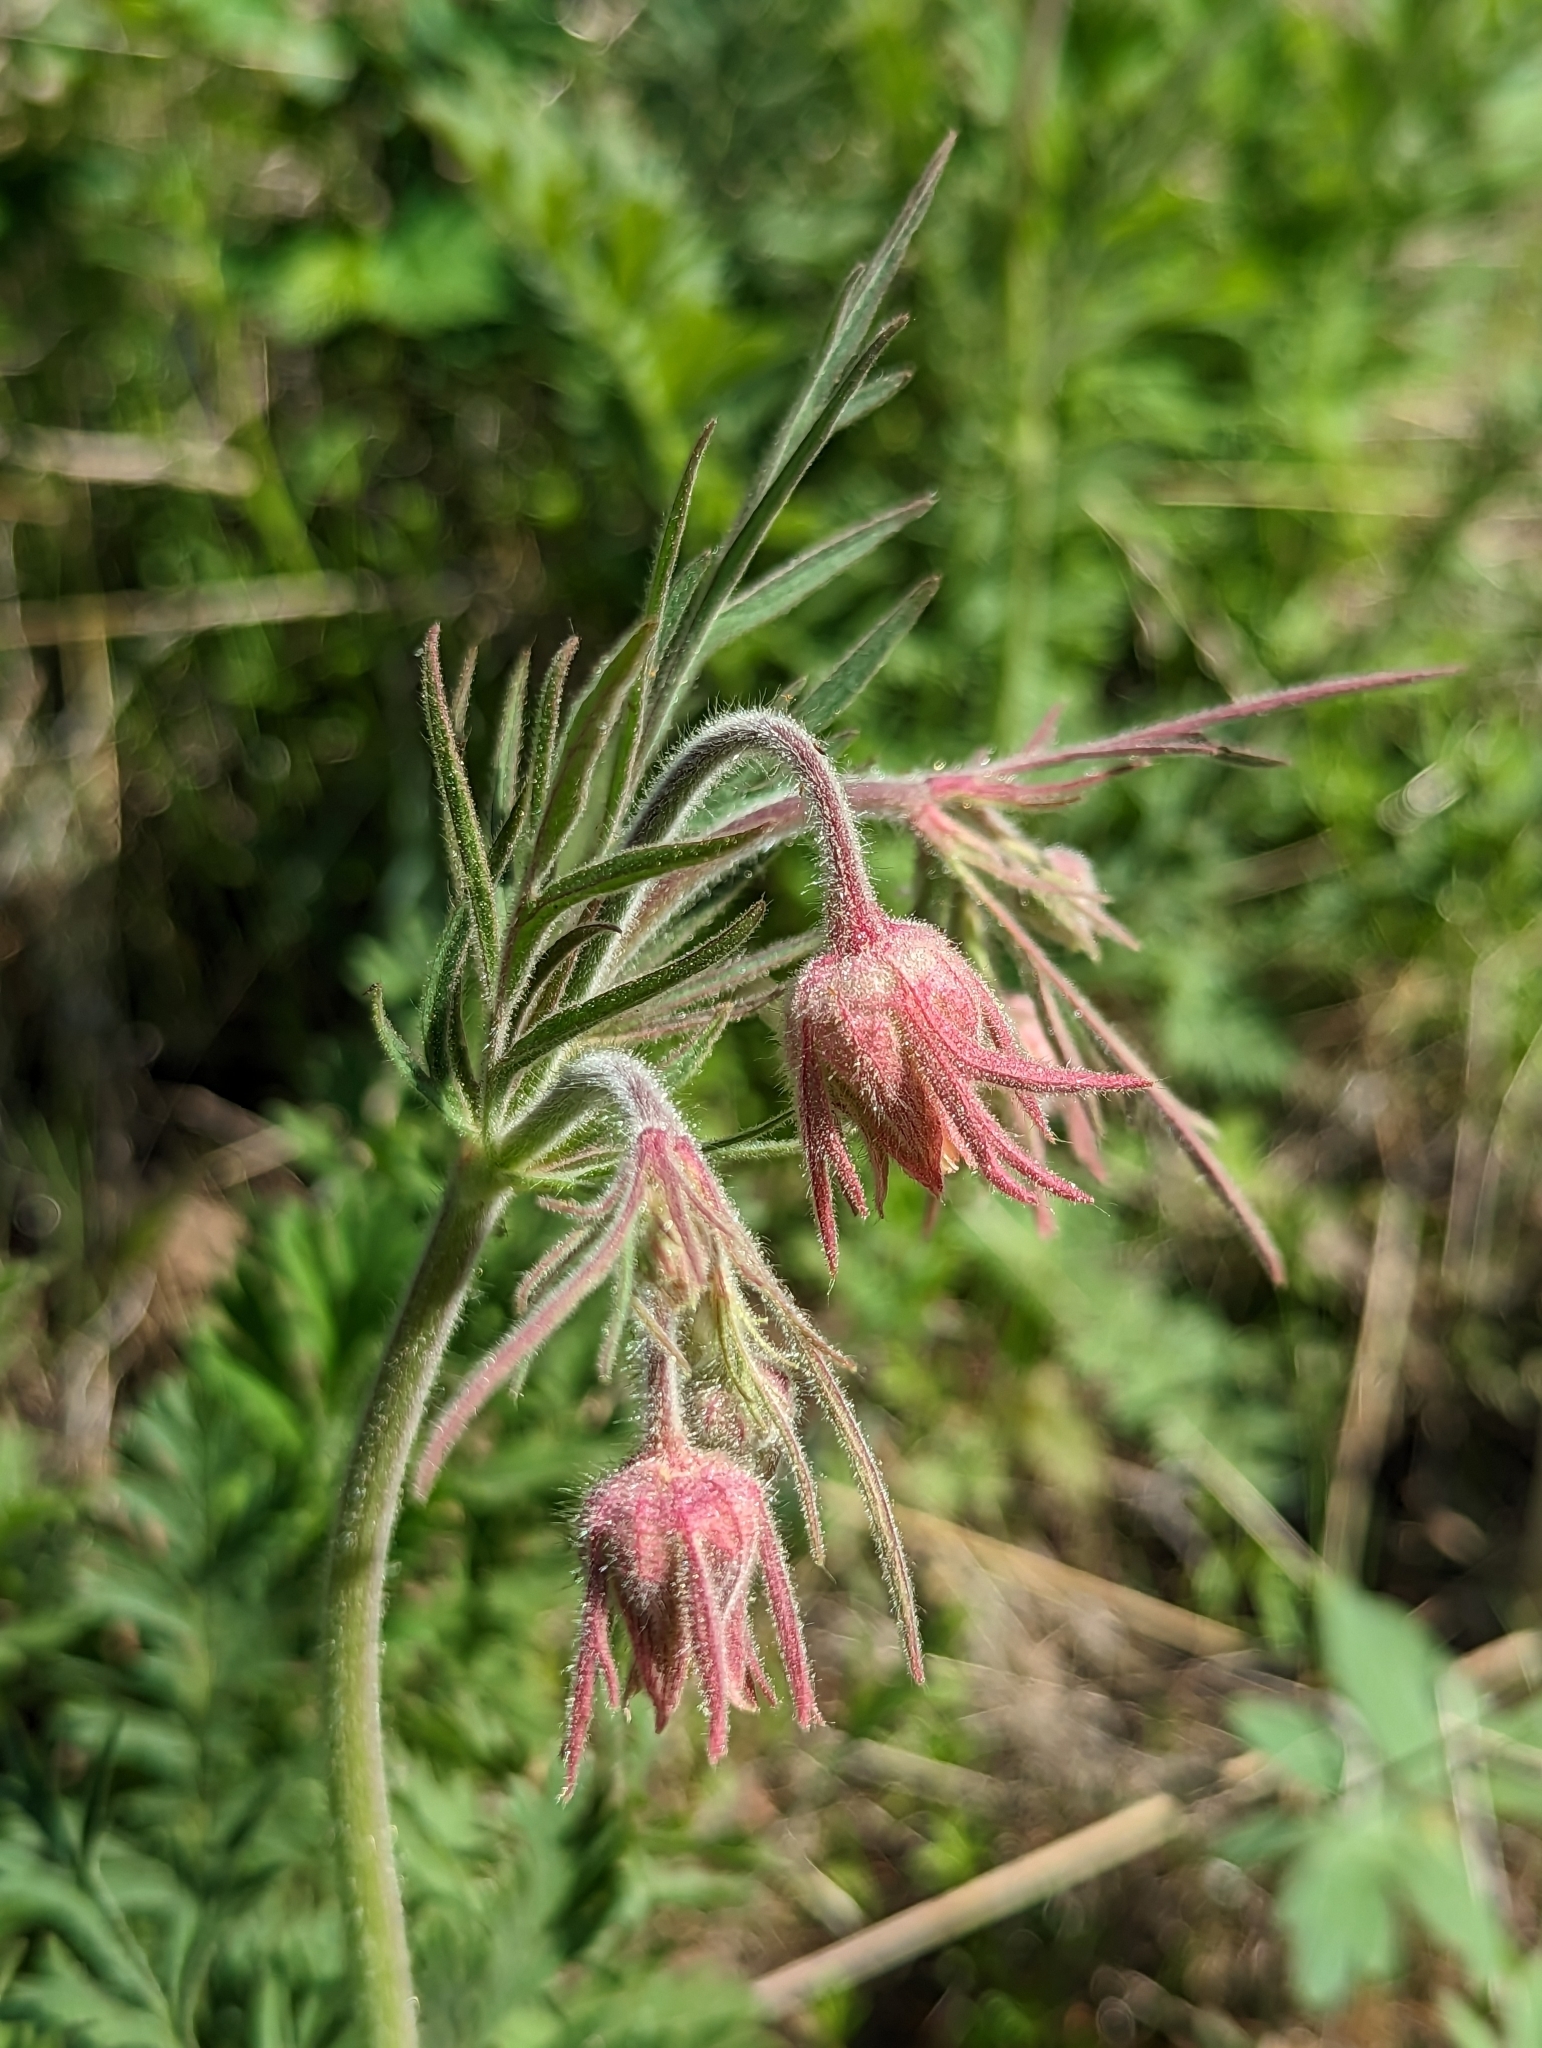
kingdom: Plantae
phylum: Tracheophyta
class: Magnoliopsida
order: Rosales
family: Rosaceae
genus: Geum
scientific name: Geum triflorum
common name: Old man's whiskers
